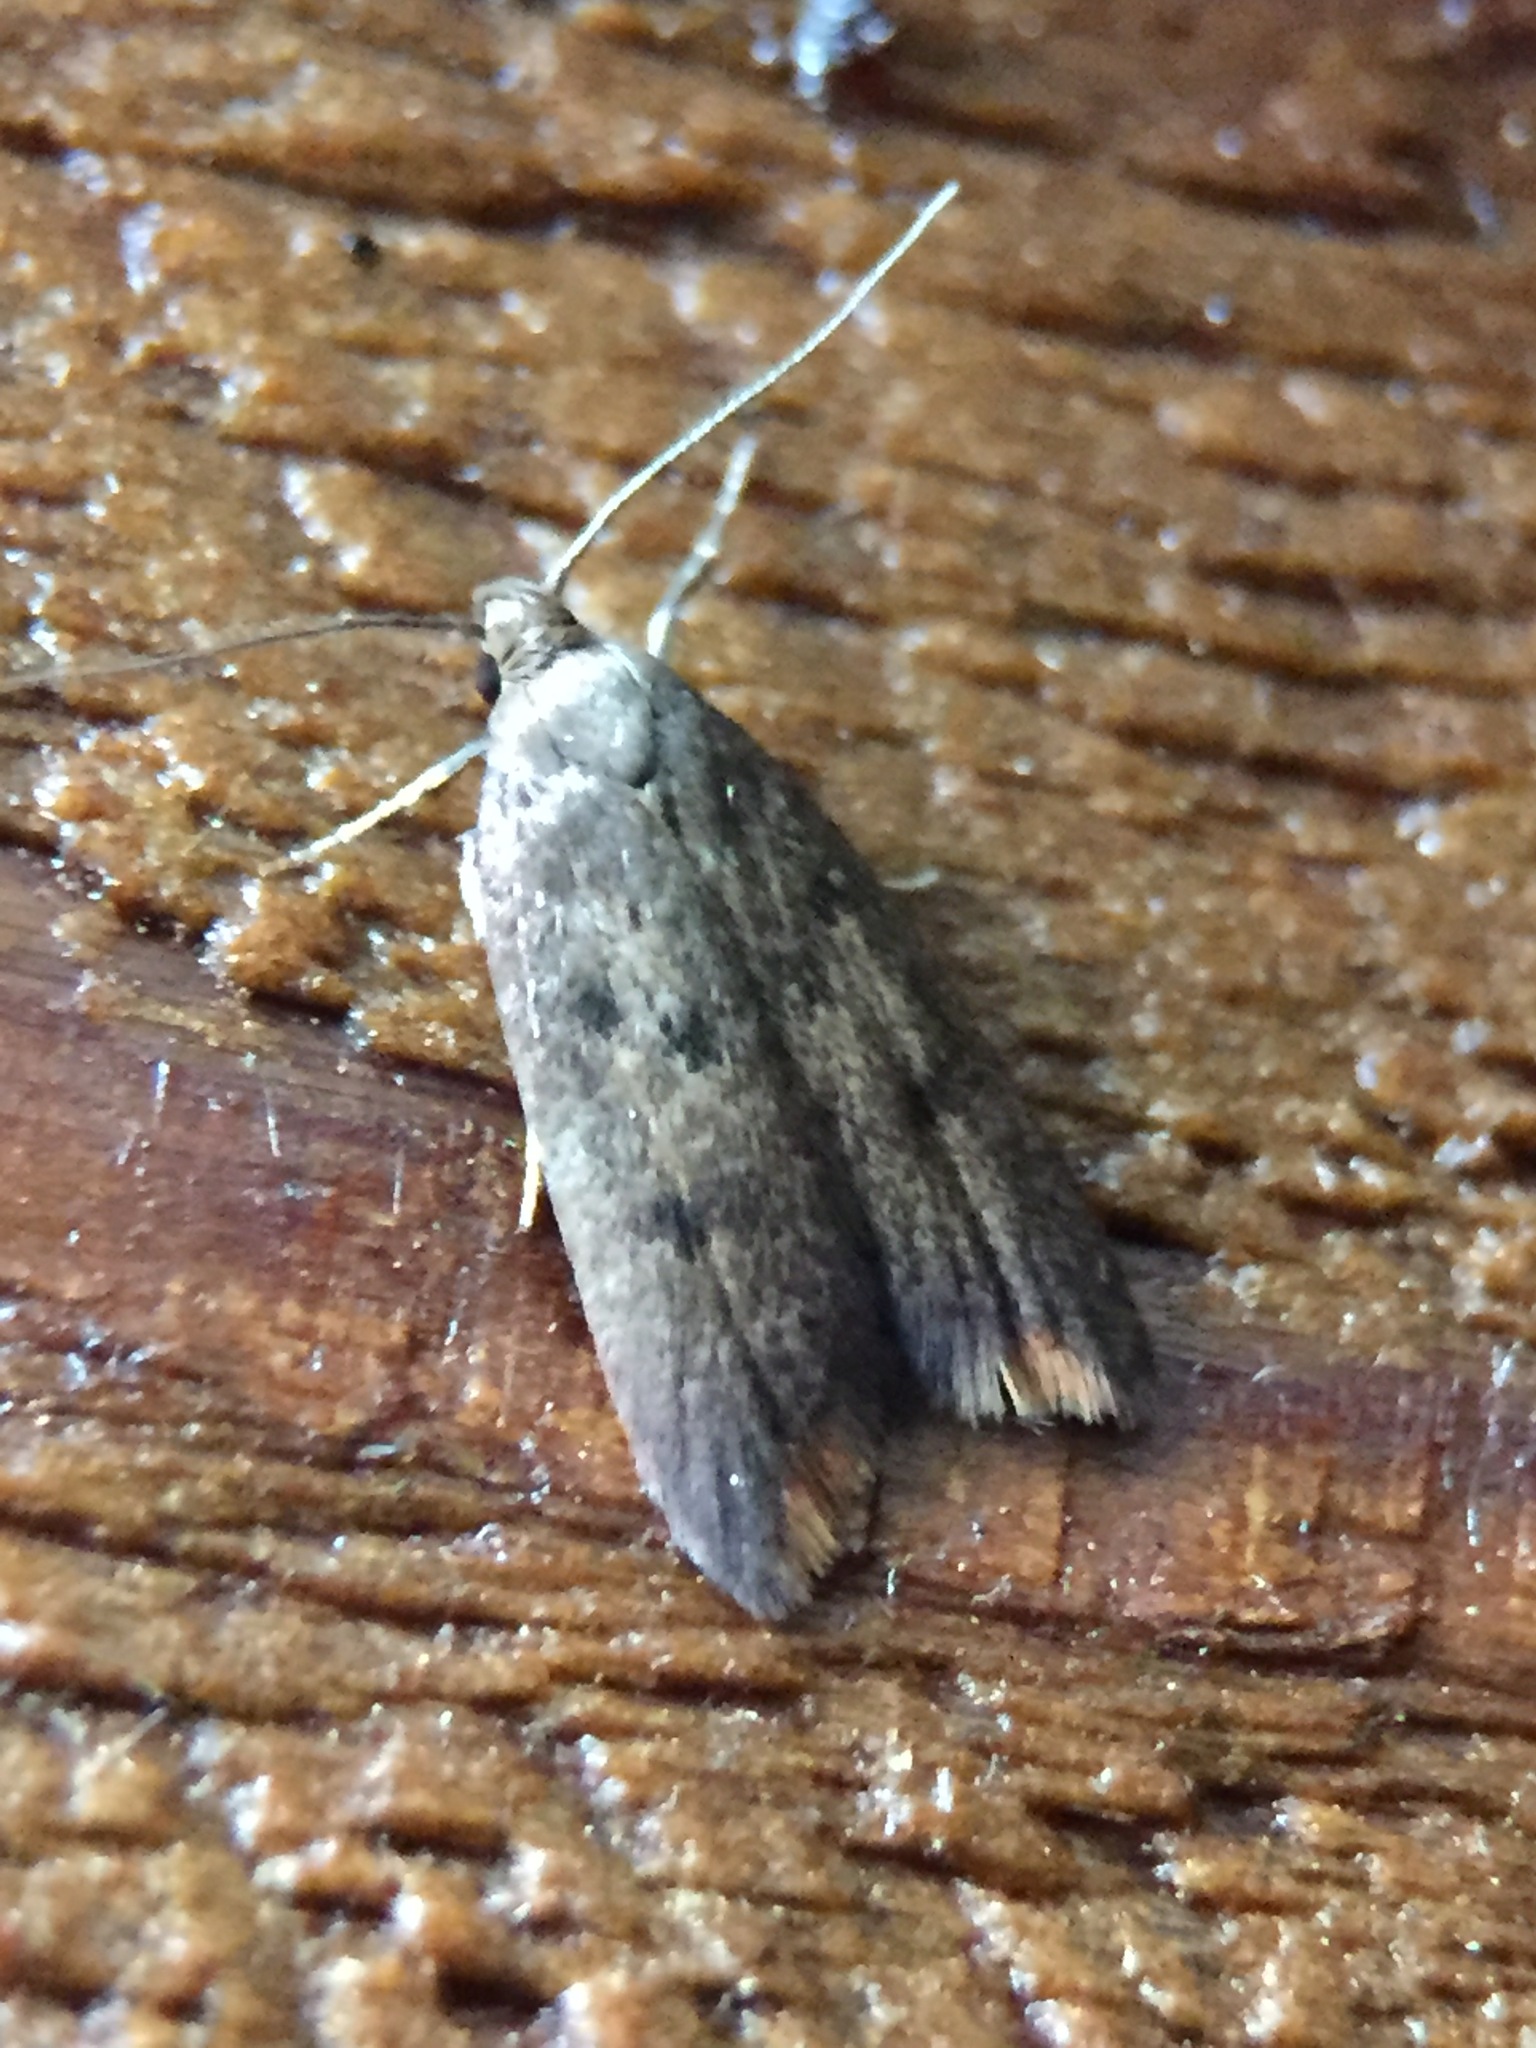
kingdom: Animalia
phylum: Arthropoda
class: Insecta
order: Lepidoptera
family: Oecophoridae
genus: Tachystola
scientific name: Tachystola acroxantha
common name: Ruddy streak
